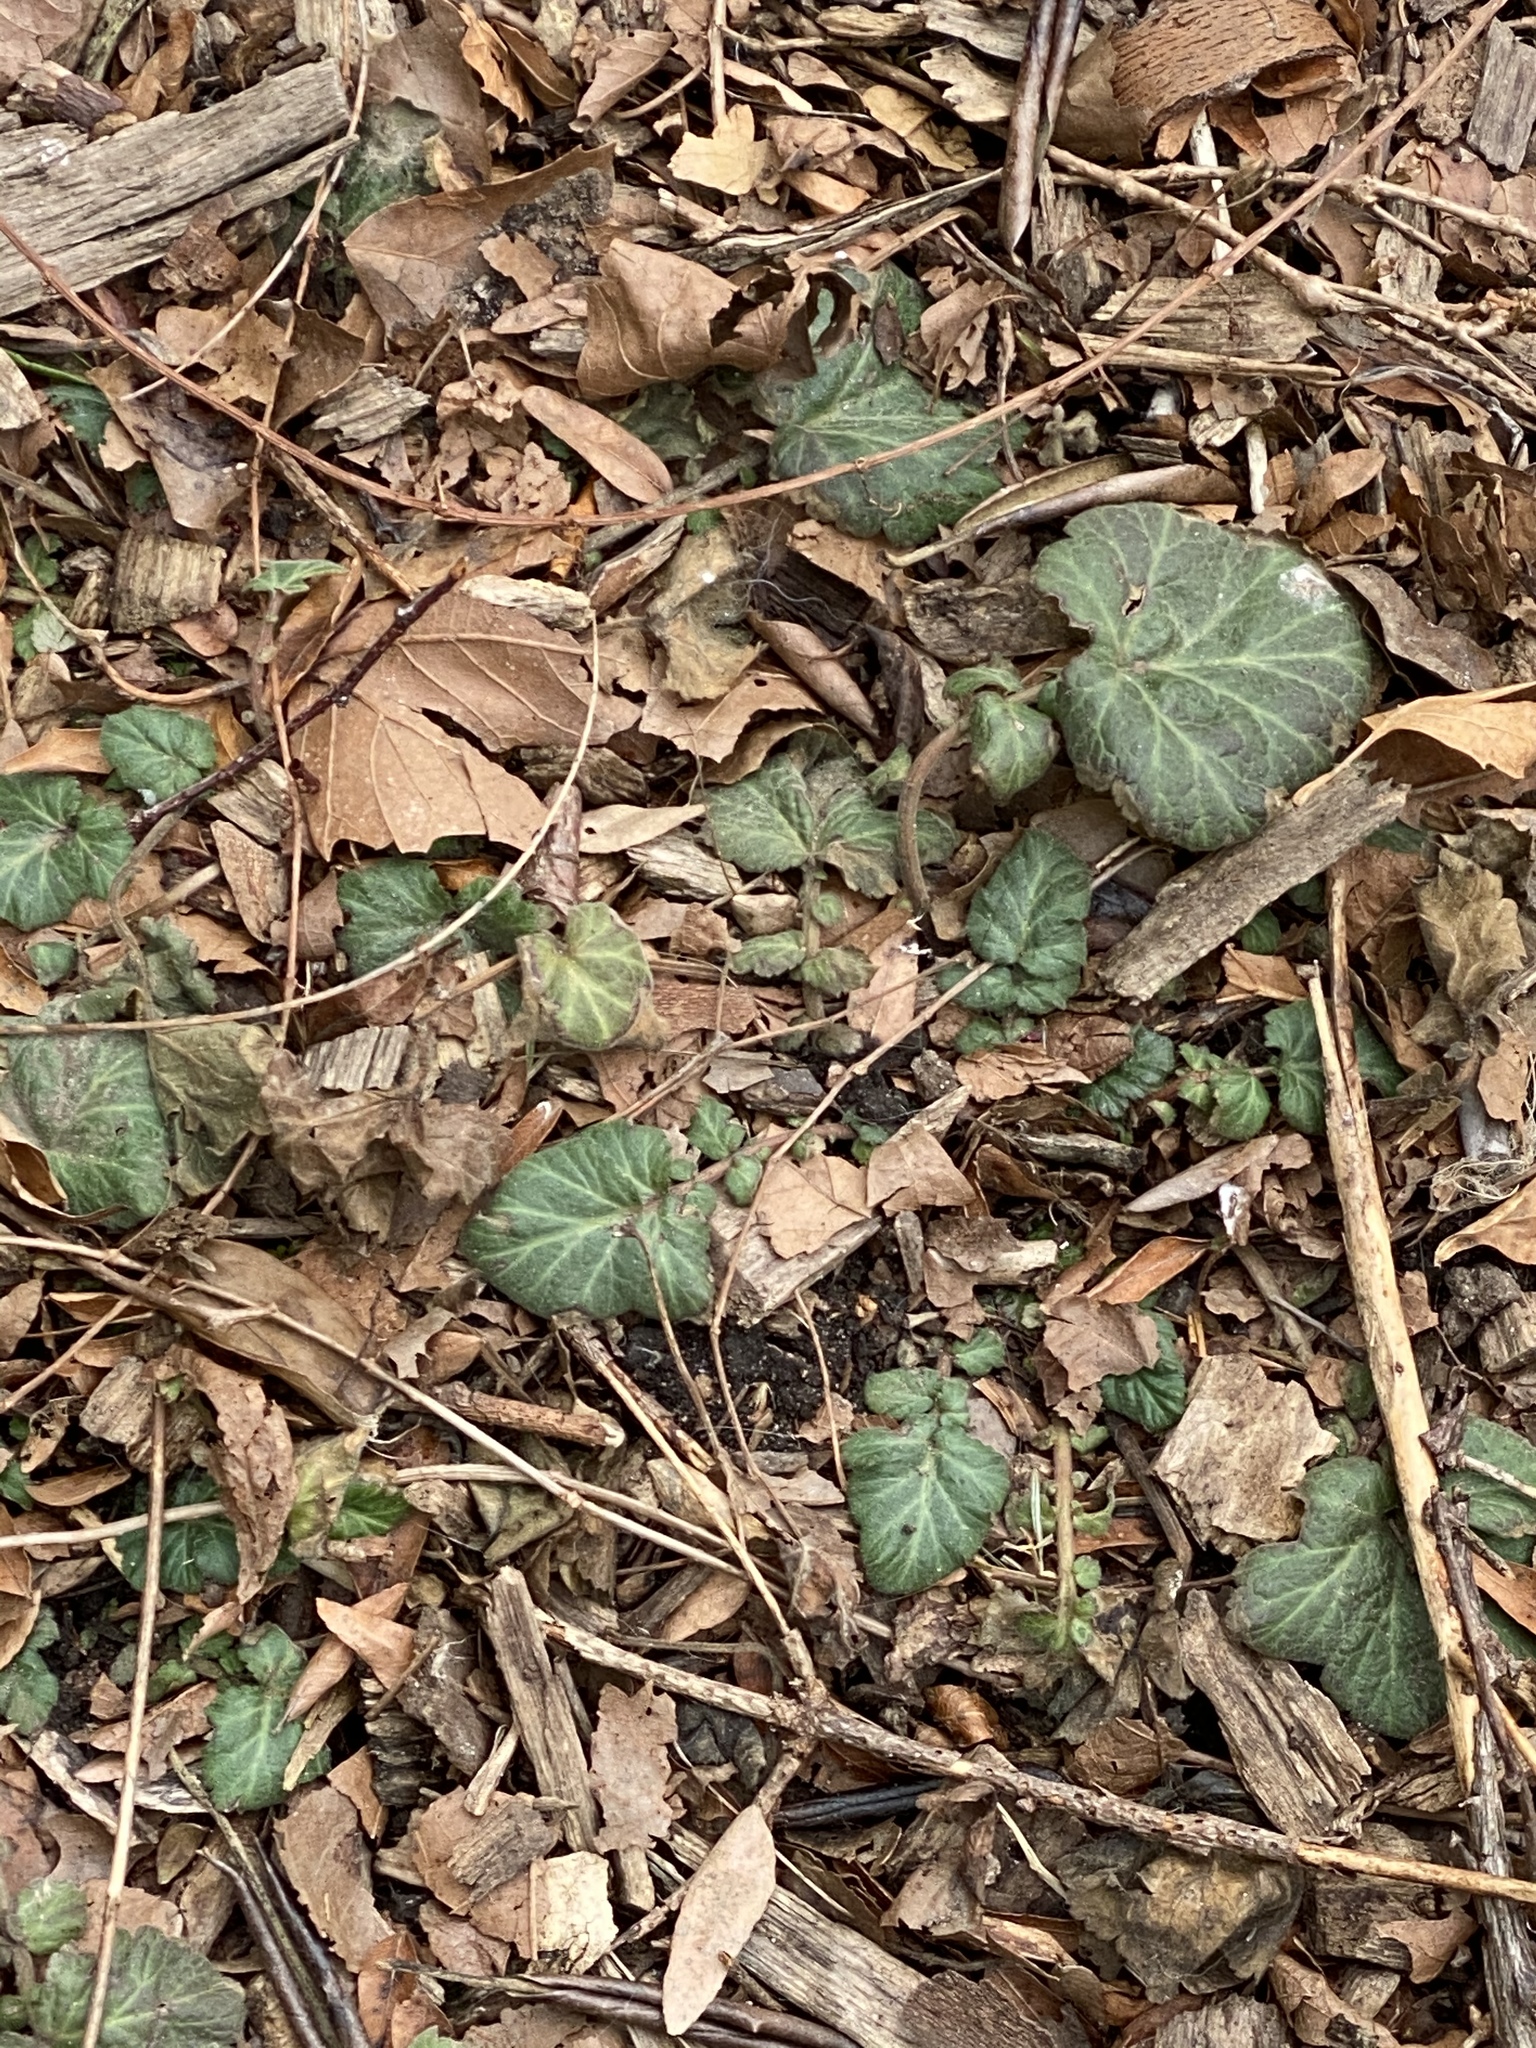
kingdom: Plantae
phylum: Tracheophyta
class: Magnoliopsida
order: Rosales
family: Rosaceae
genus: Geum
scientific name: Geum canadense
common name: White avens
